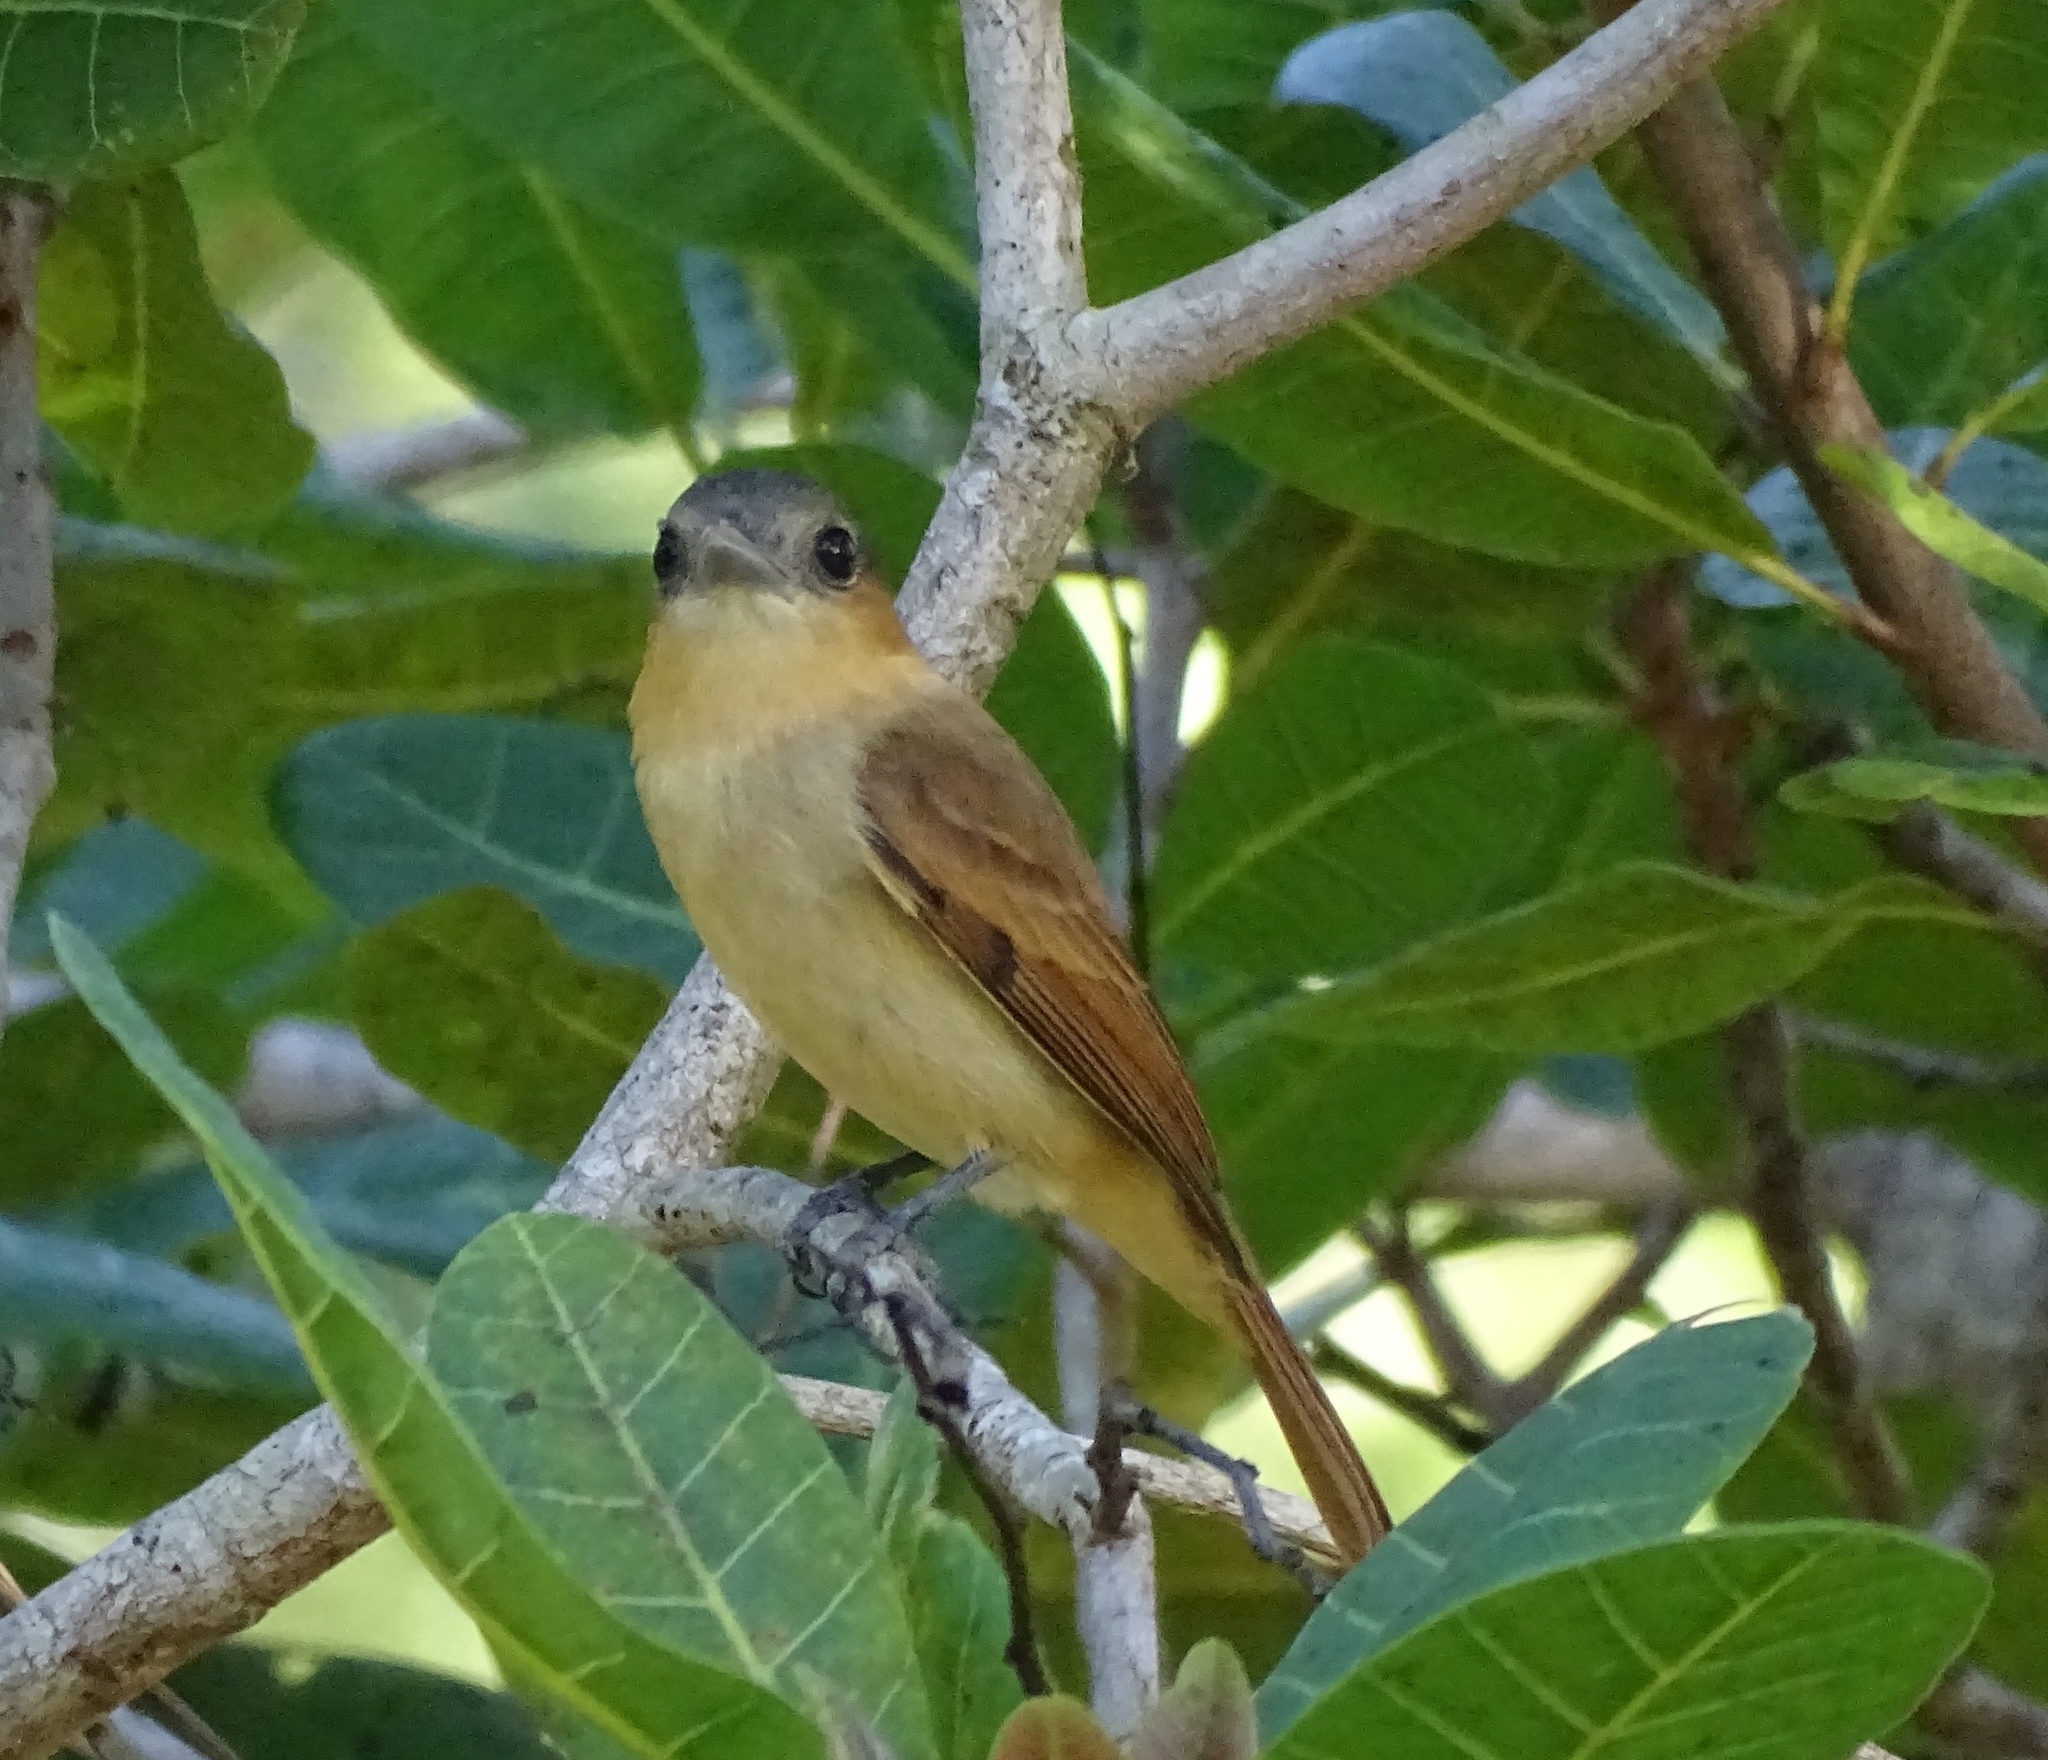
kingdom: Animalia
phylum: Chordata
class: Aves
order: Passeriformes
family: Cotingidae
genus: Pachyramphus
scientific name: Pachyramphus aglaiae
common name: Rose-throated becard
